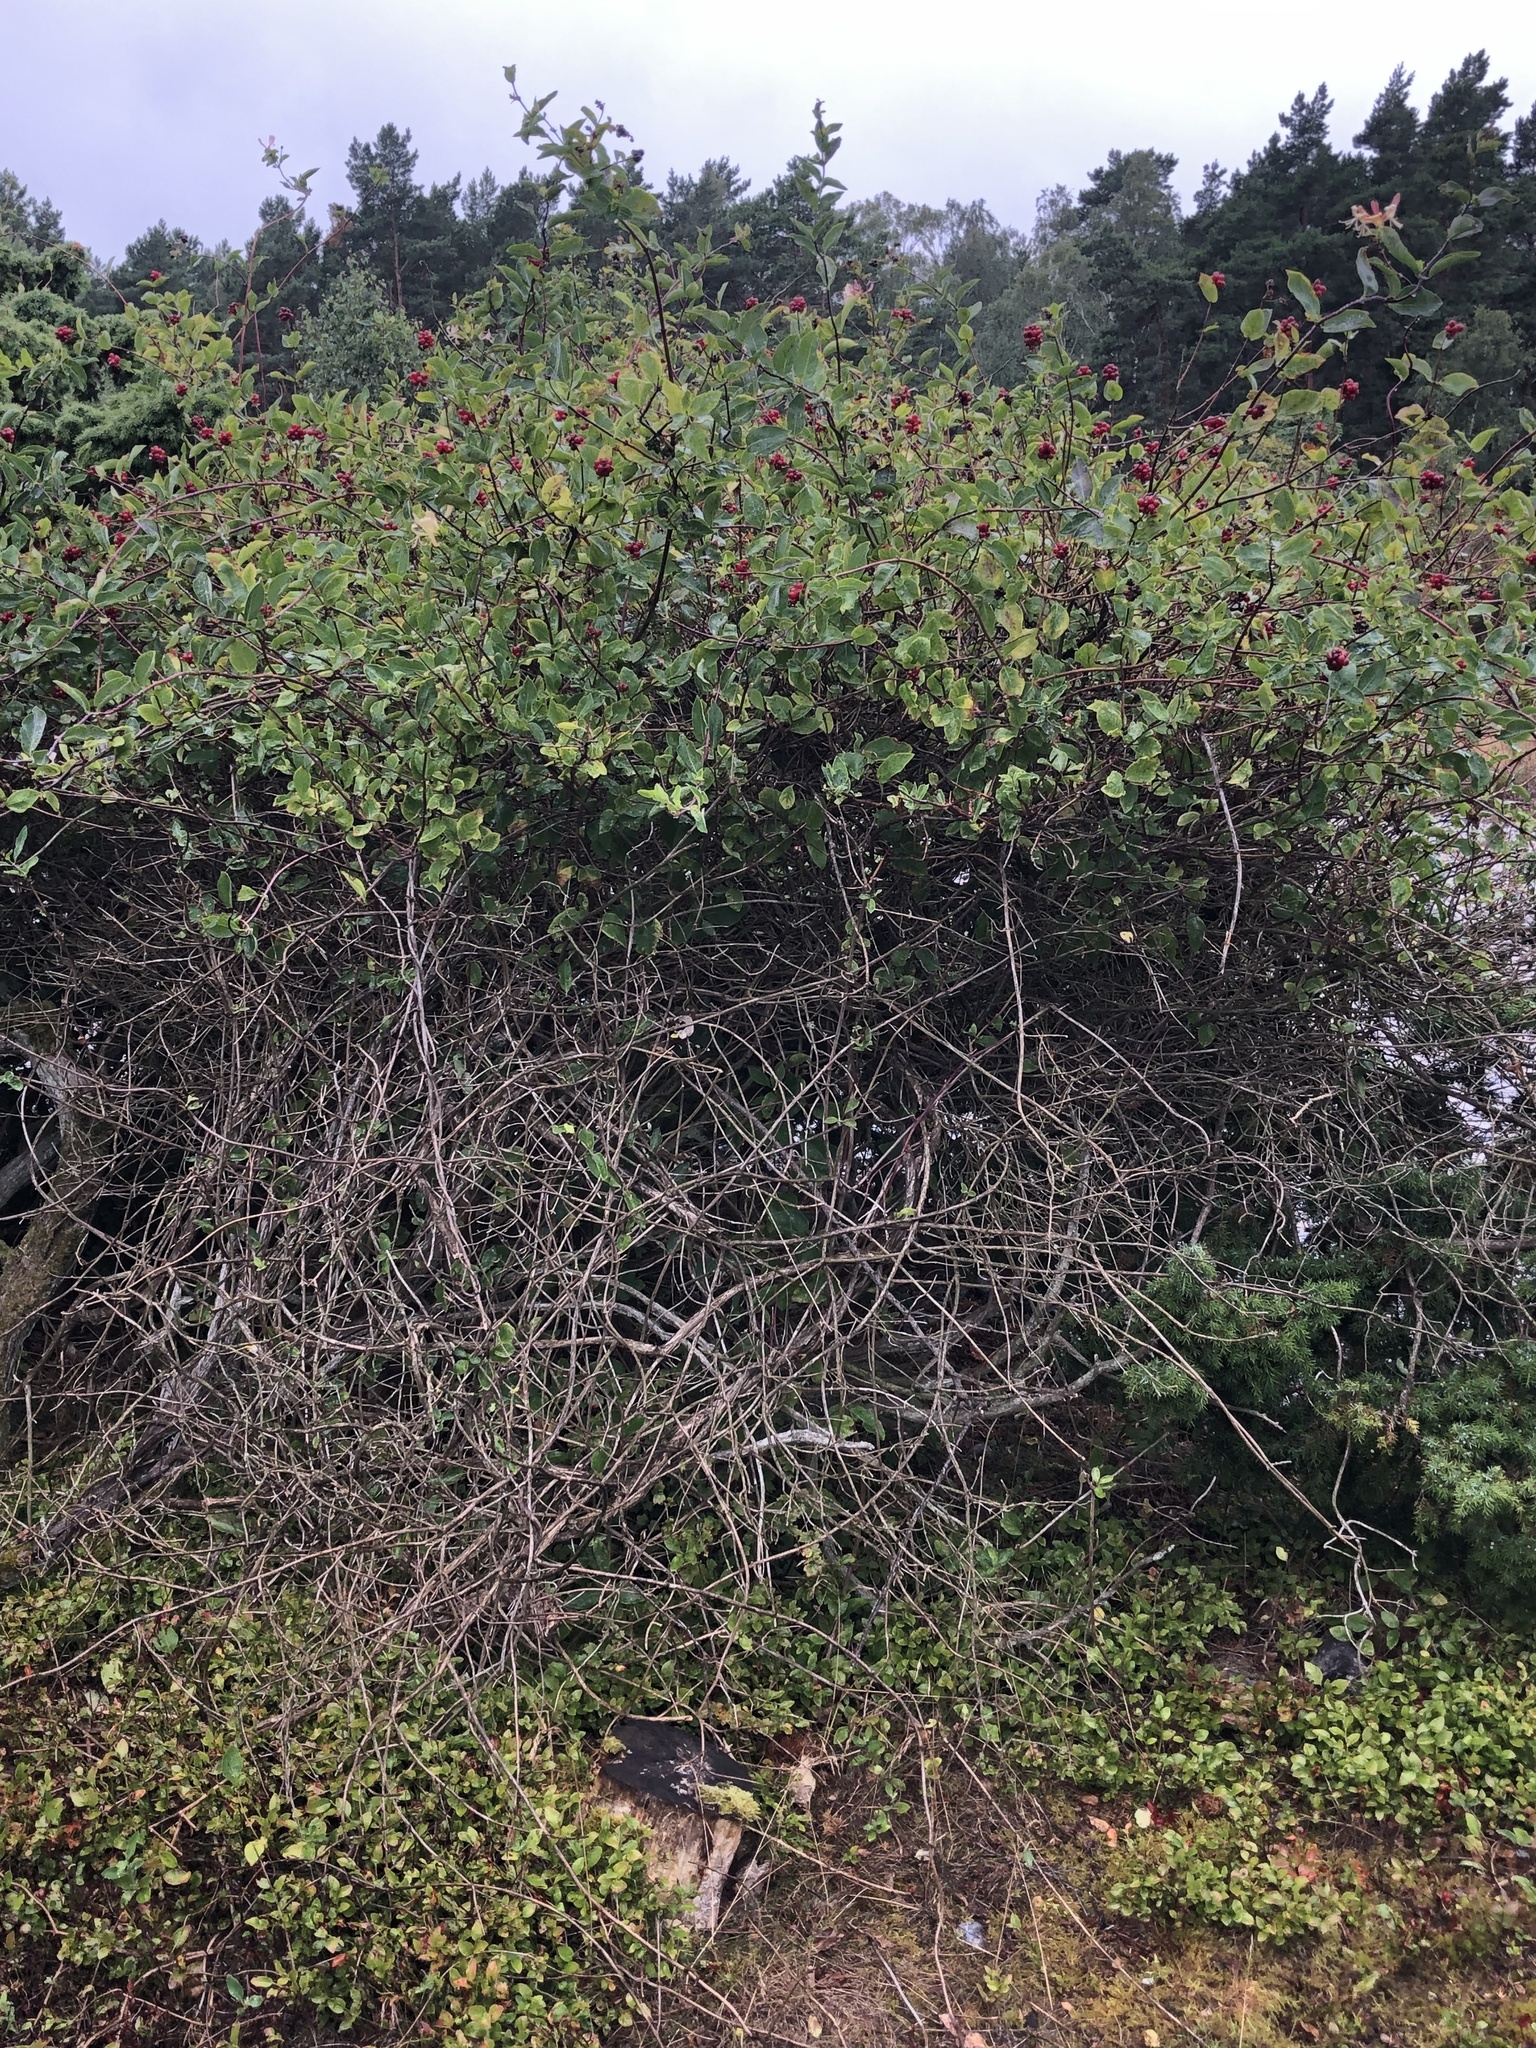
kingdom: Plantae
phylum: Tracheophyta
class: Magnoliopsida
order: Dipsacales
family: Caprifoliaceae
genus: Lonicera
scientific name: Lonicera periclymenum
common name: European honeysuckle
